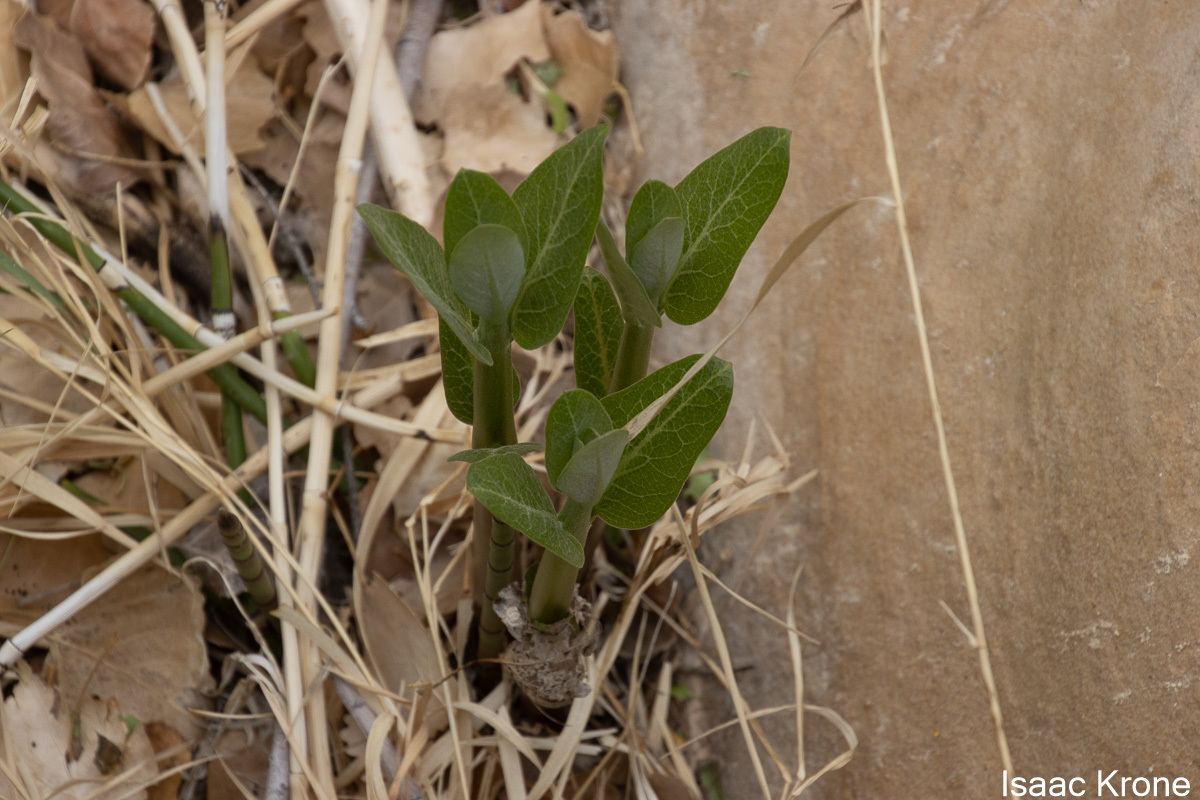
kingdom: Plantae
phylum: Tracheophyta
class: Magnoliopsida
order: Gentianales
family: Apocynaceae
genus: Asclepias
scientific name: Asclepias latifolia
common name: Broadleaf milkweed
